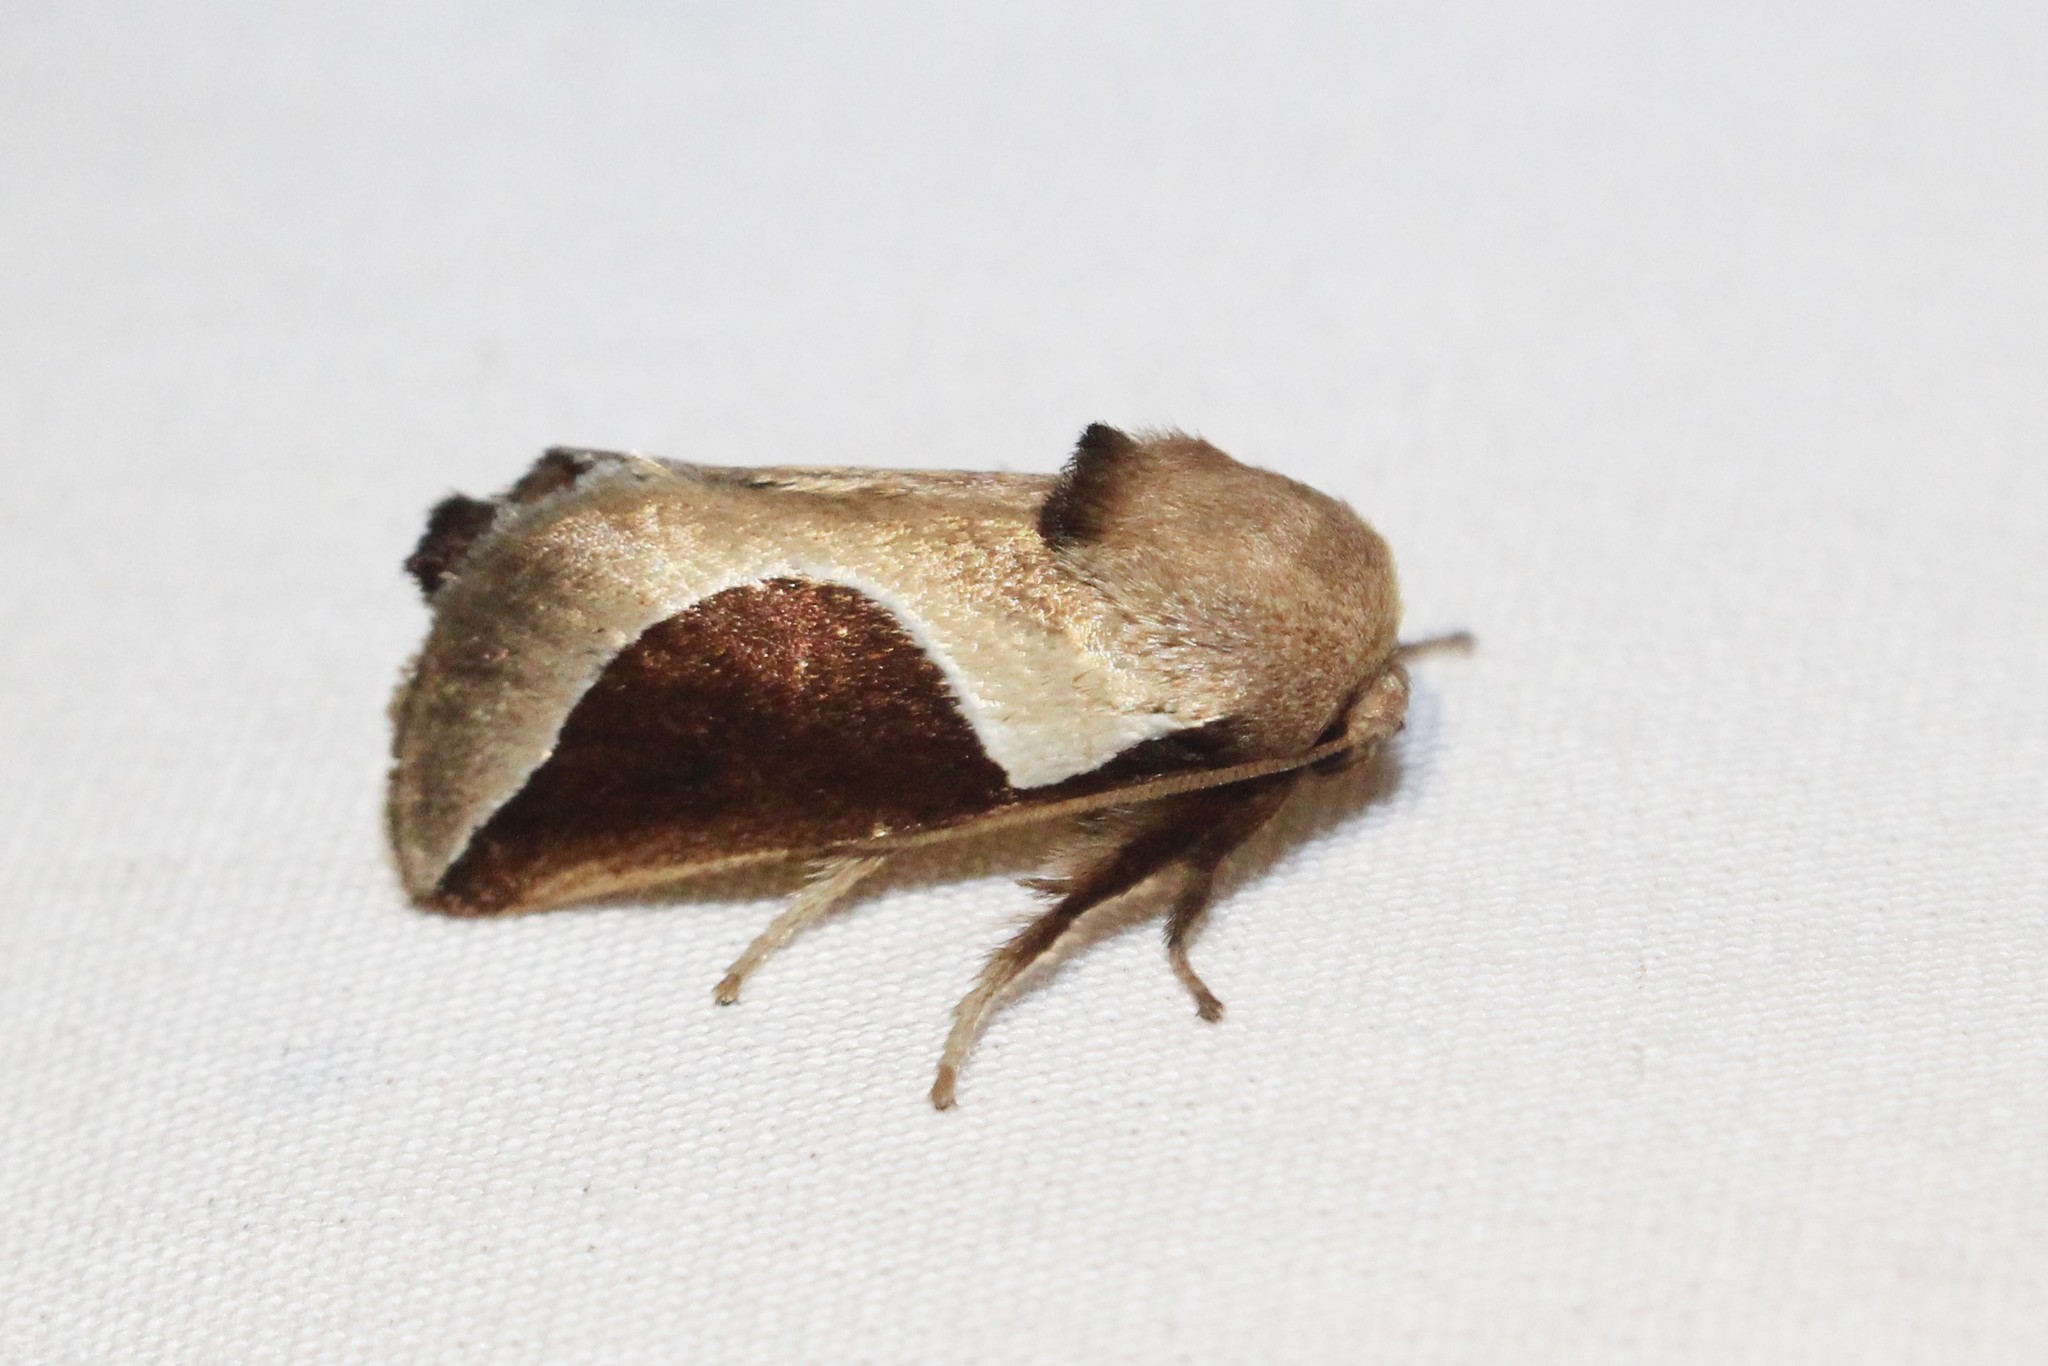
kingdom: Animalia
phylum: Arthropoda
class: Insecta
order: Lepidoptera
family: Limacodidae
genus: Prolimacodes
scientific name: Prolimacodes badia
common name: Skiff moth
